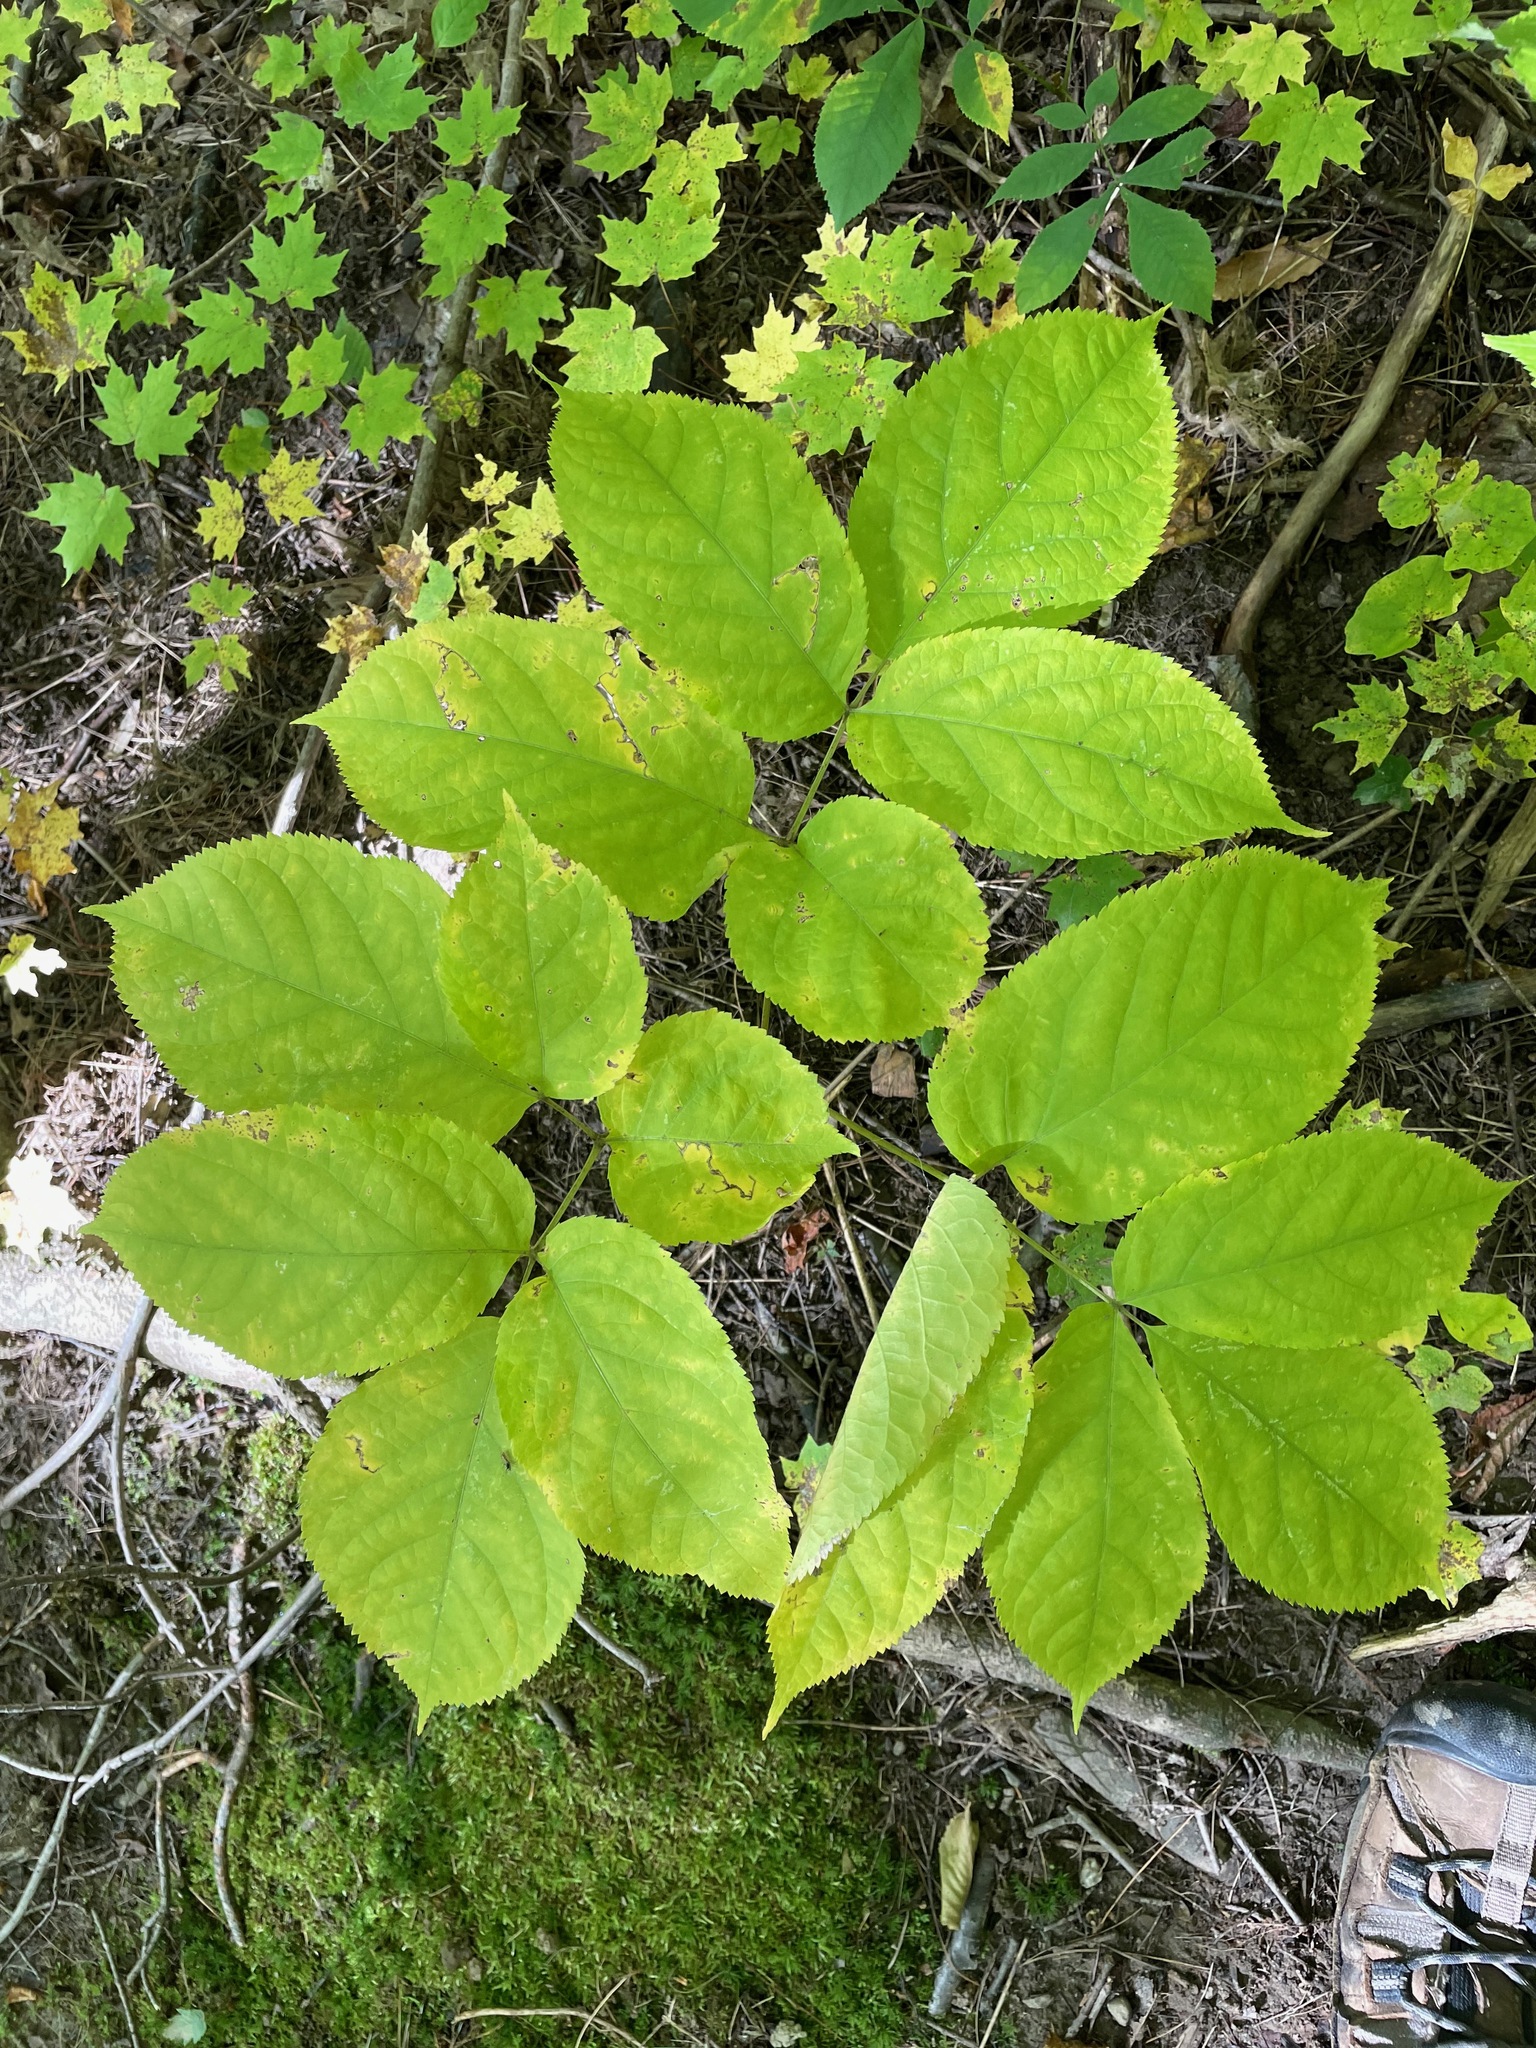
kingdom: Plantae
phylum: Tracheophyta
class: Magnoliopsida
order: Apiales
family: Araliaceae
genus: Aralia
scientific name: Aralia nudicaulis
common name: Wild sarsaparilla
